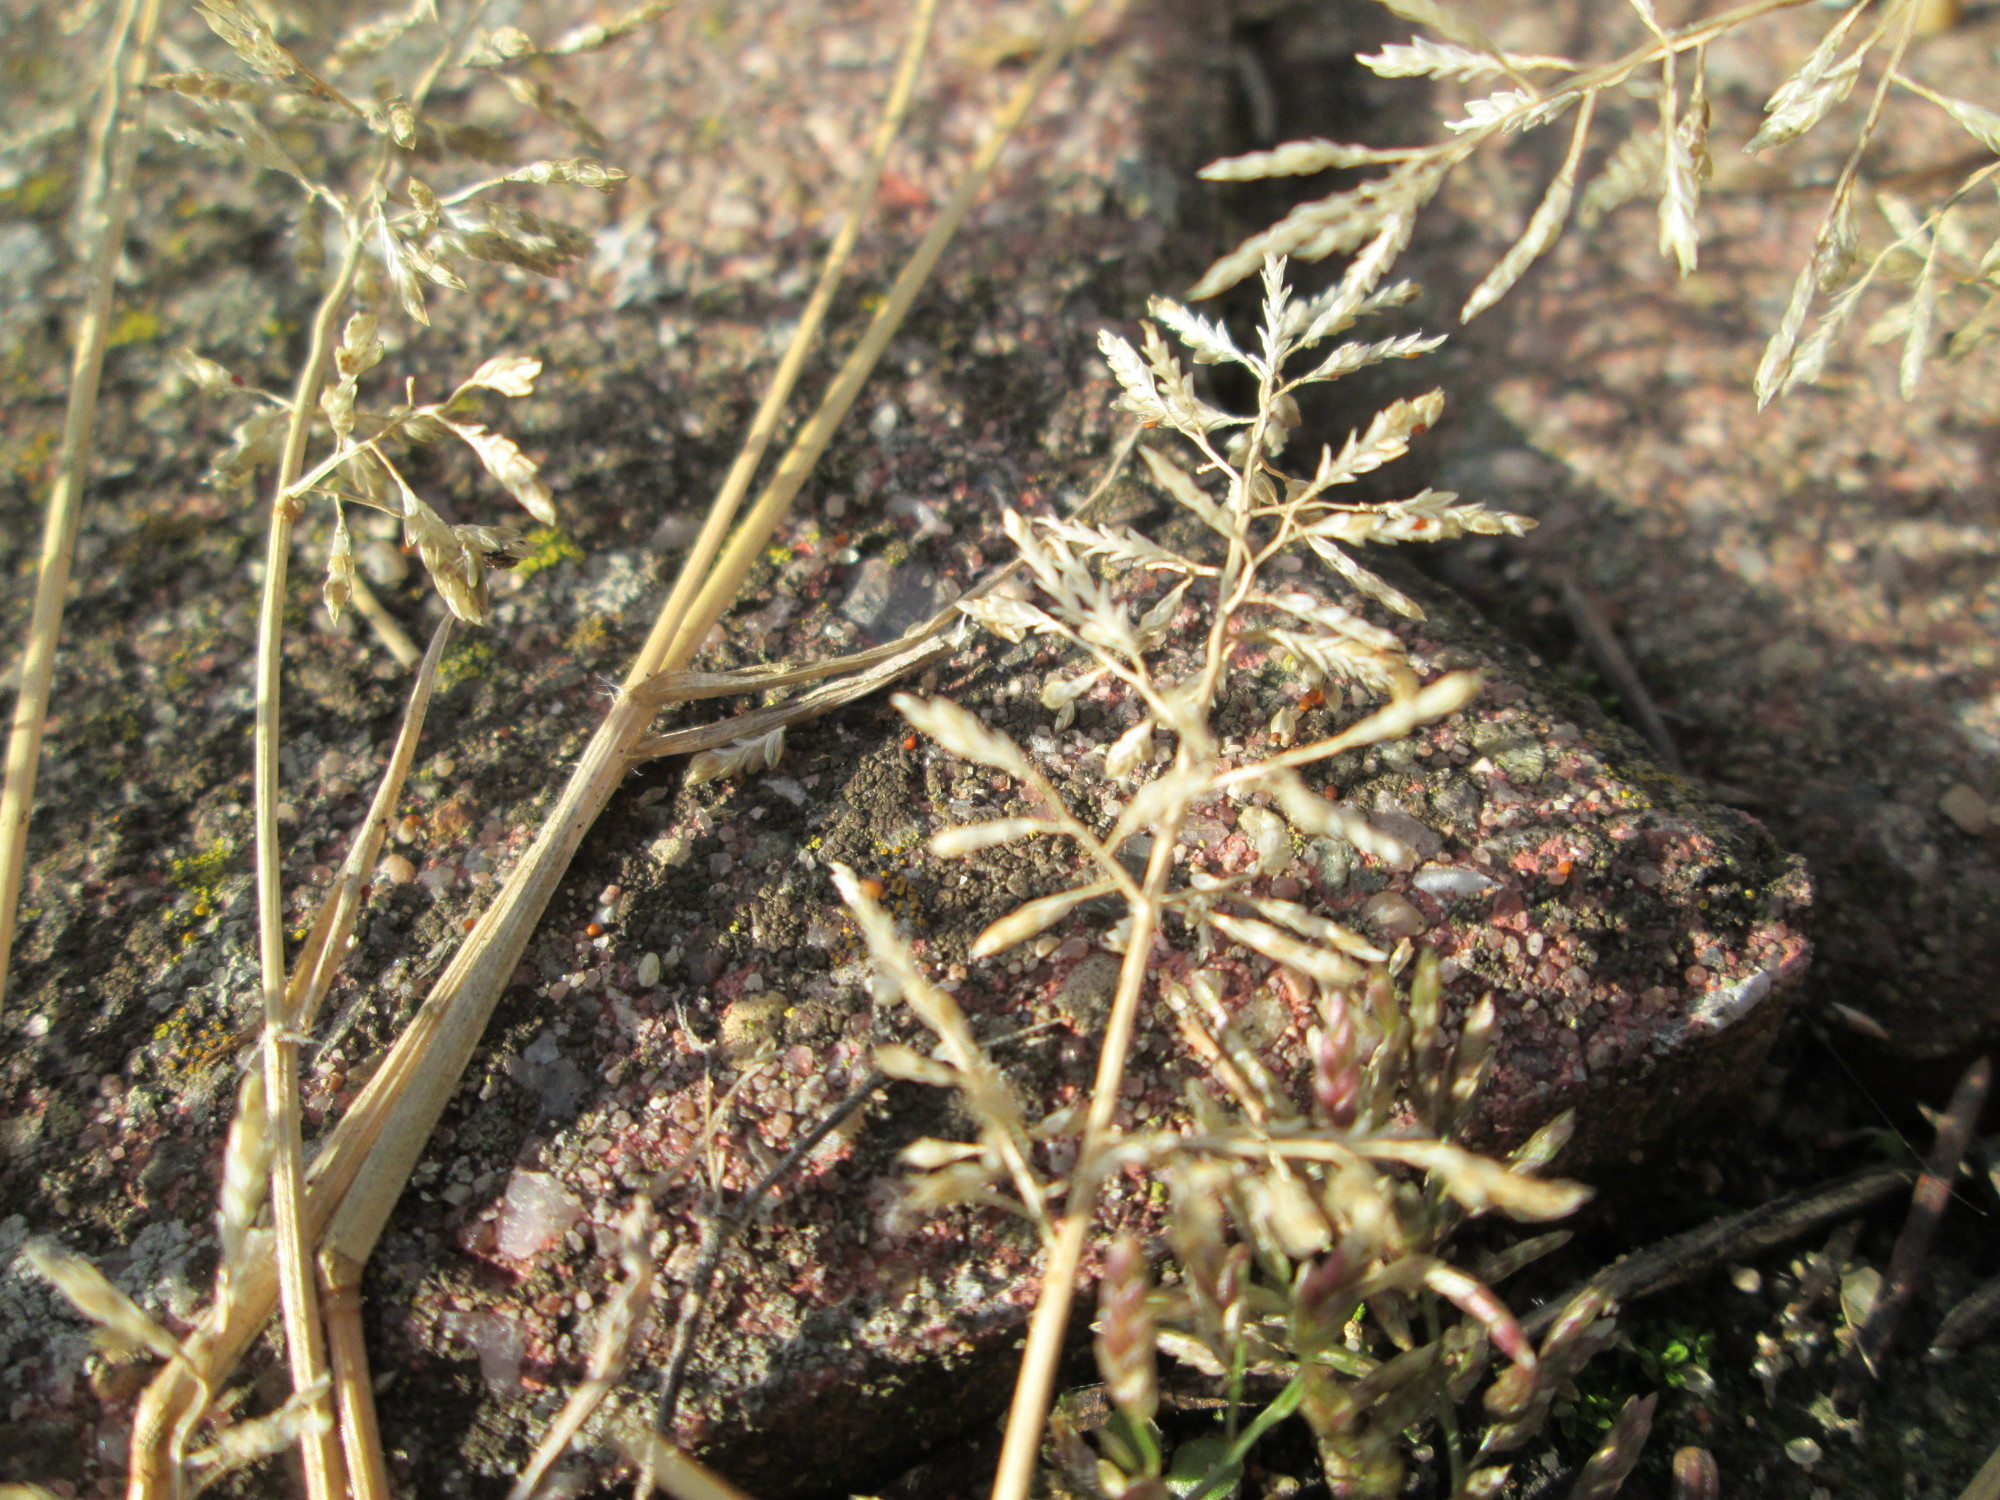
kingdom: Plantae
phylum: Tracheophyta
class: Liliopsida
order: Poales
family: Poaceae
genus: Eragrostis
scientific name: Eragrostis minor
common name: Small love-grass
